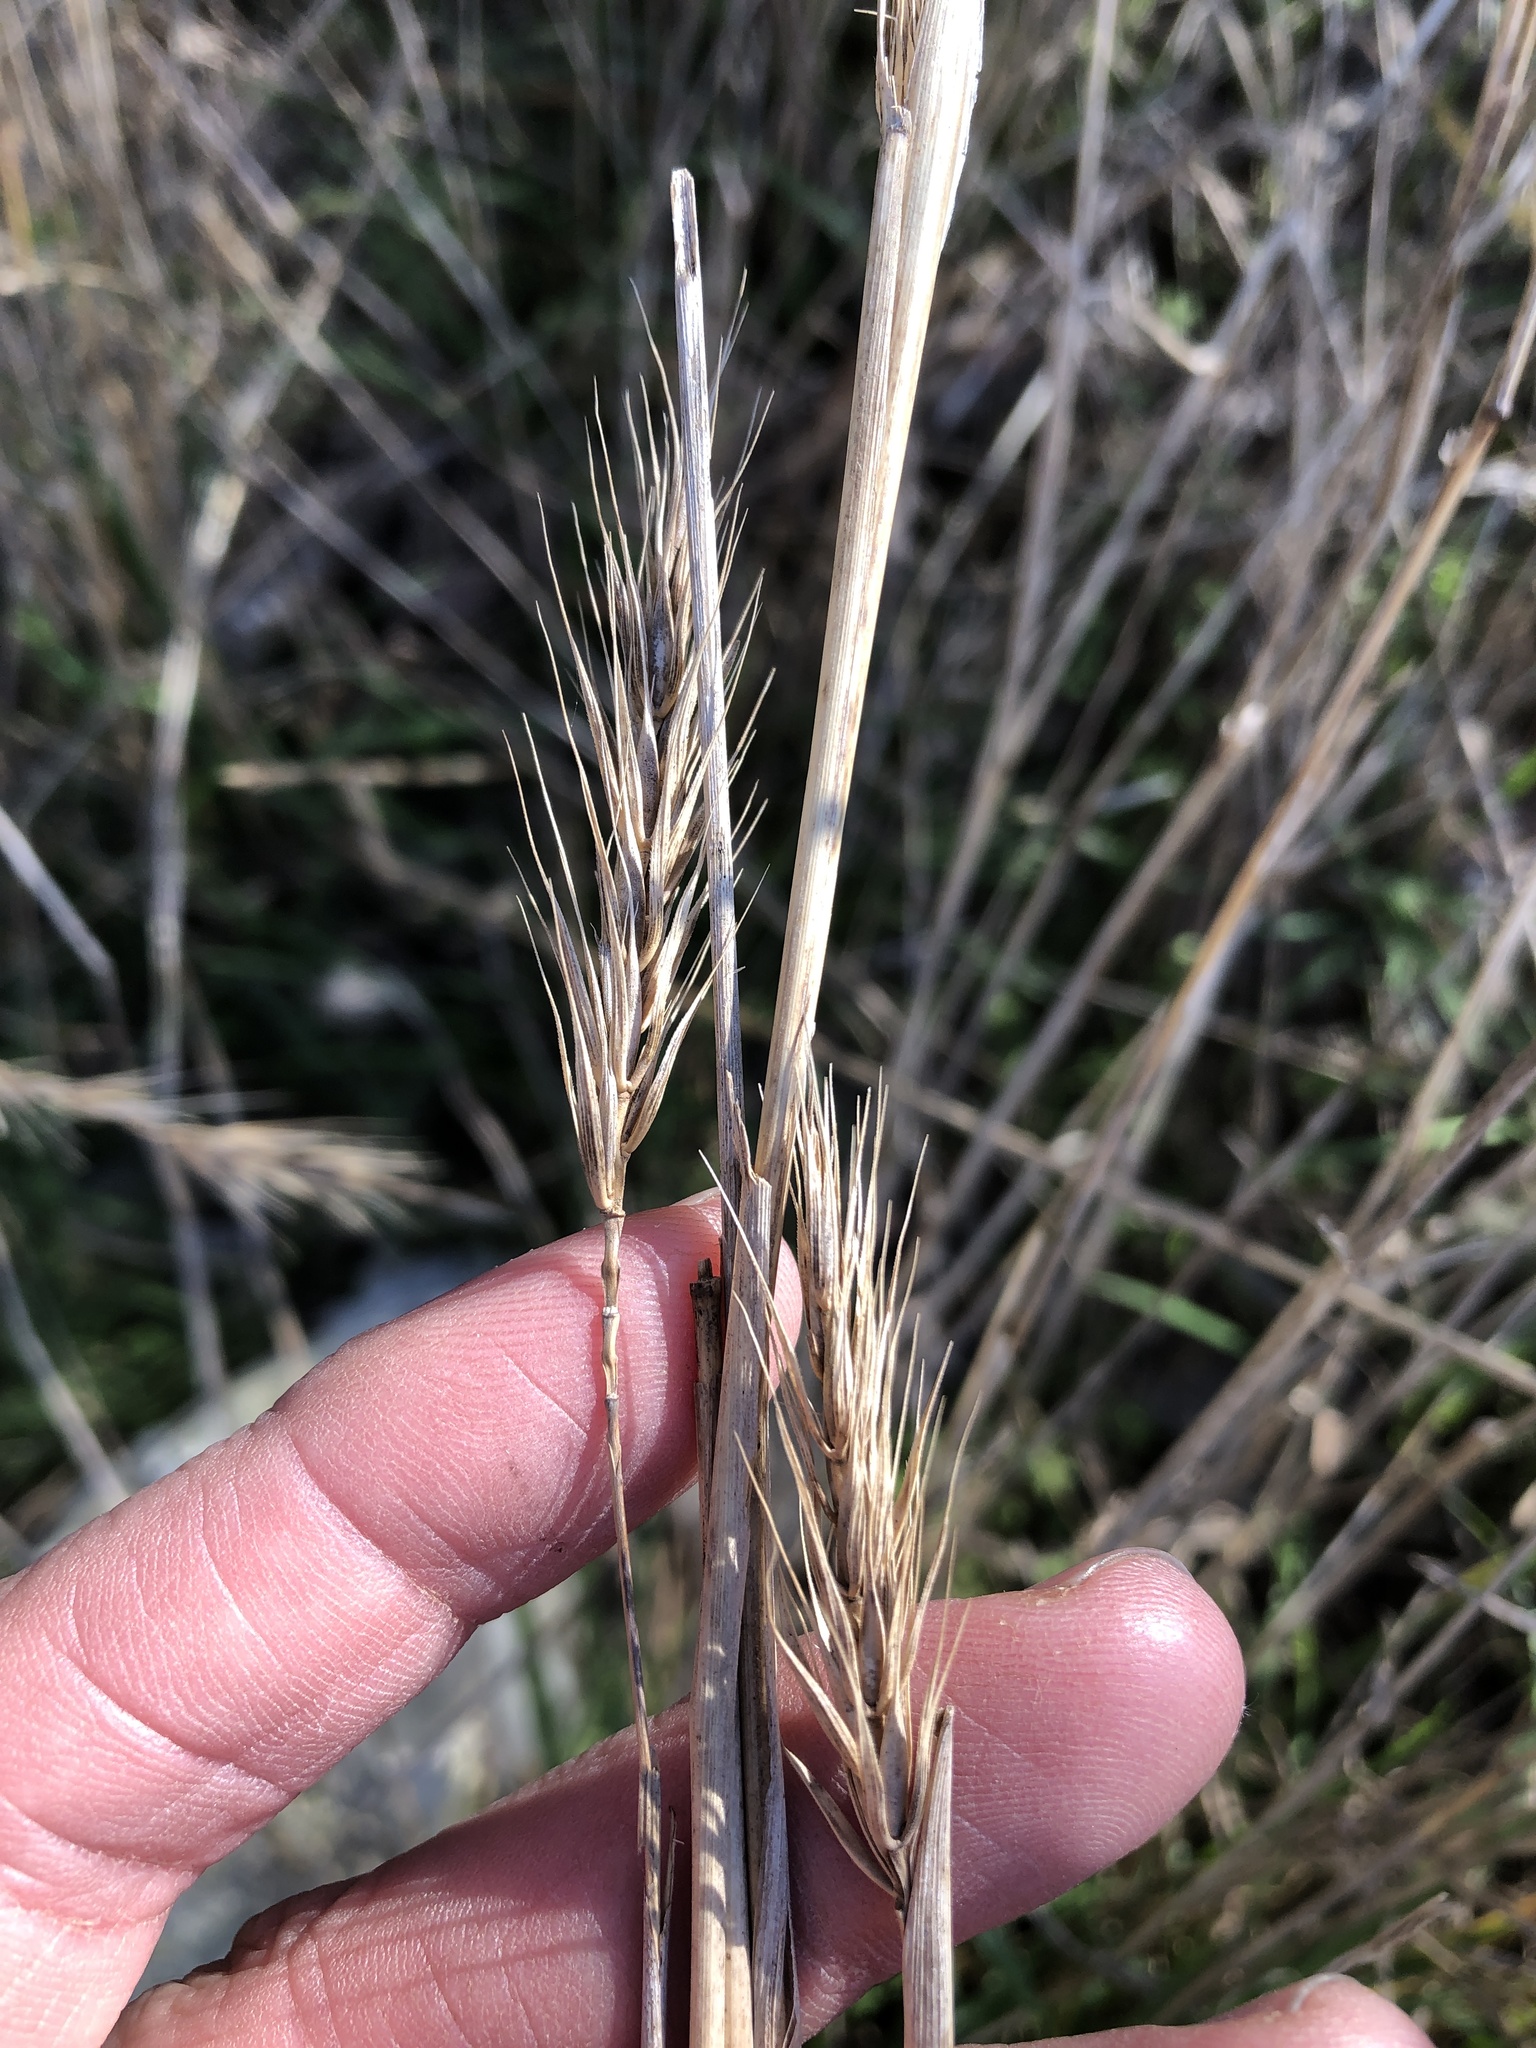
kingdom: Plantae
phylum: Tracheophyta
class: Liliopsida
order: Poales
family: Poaceae
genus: Elymus
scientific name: Elymus virginicus
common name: Common eastern wildrye
